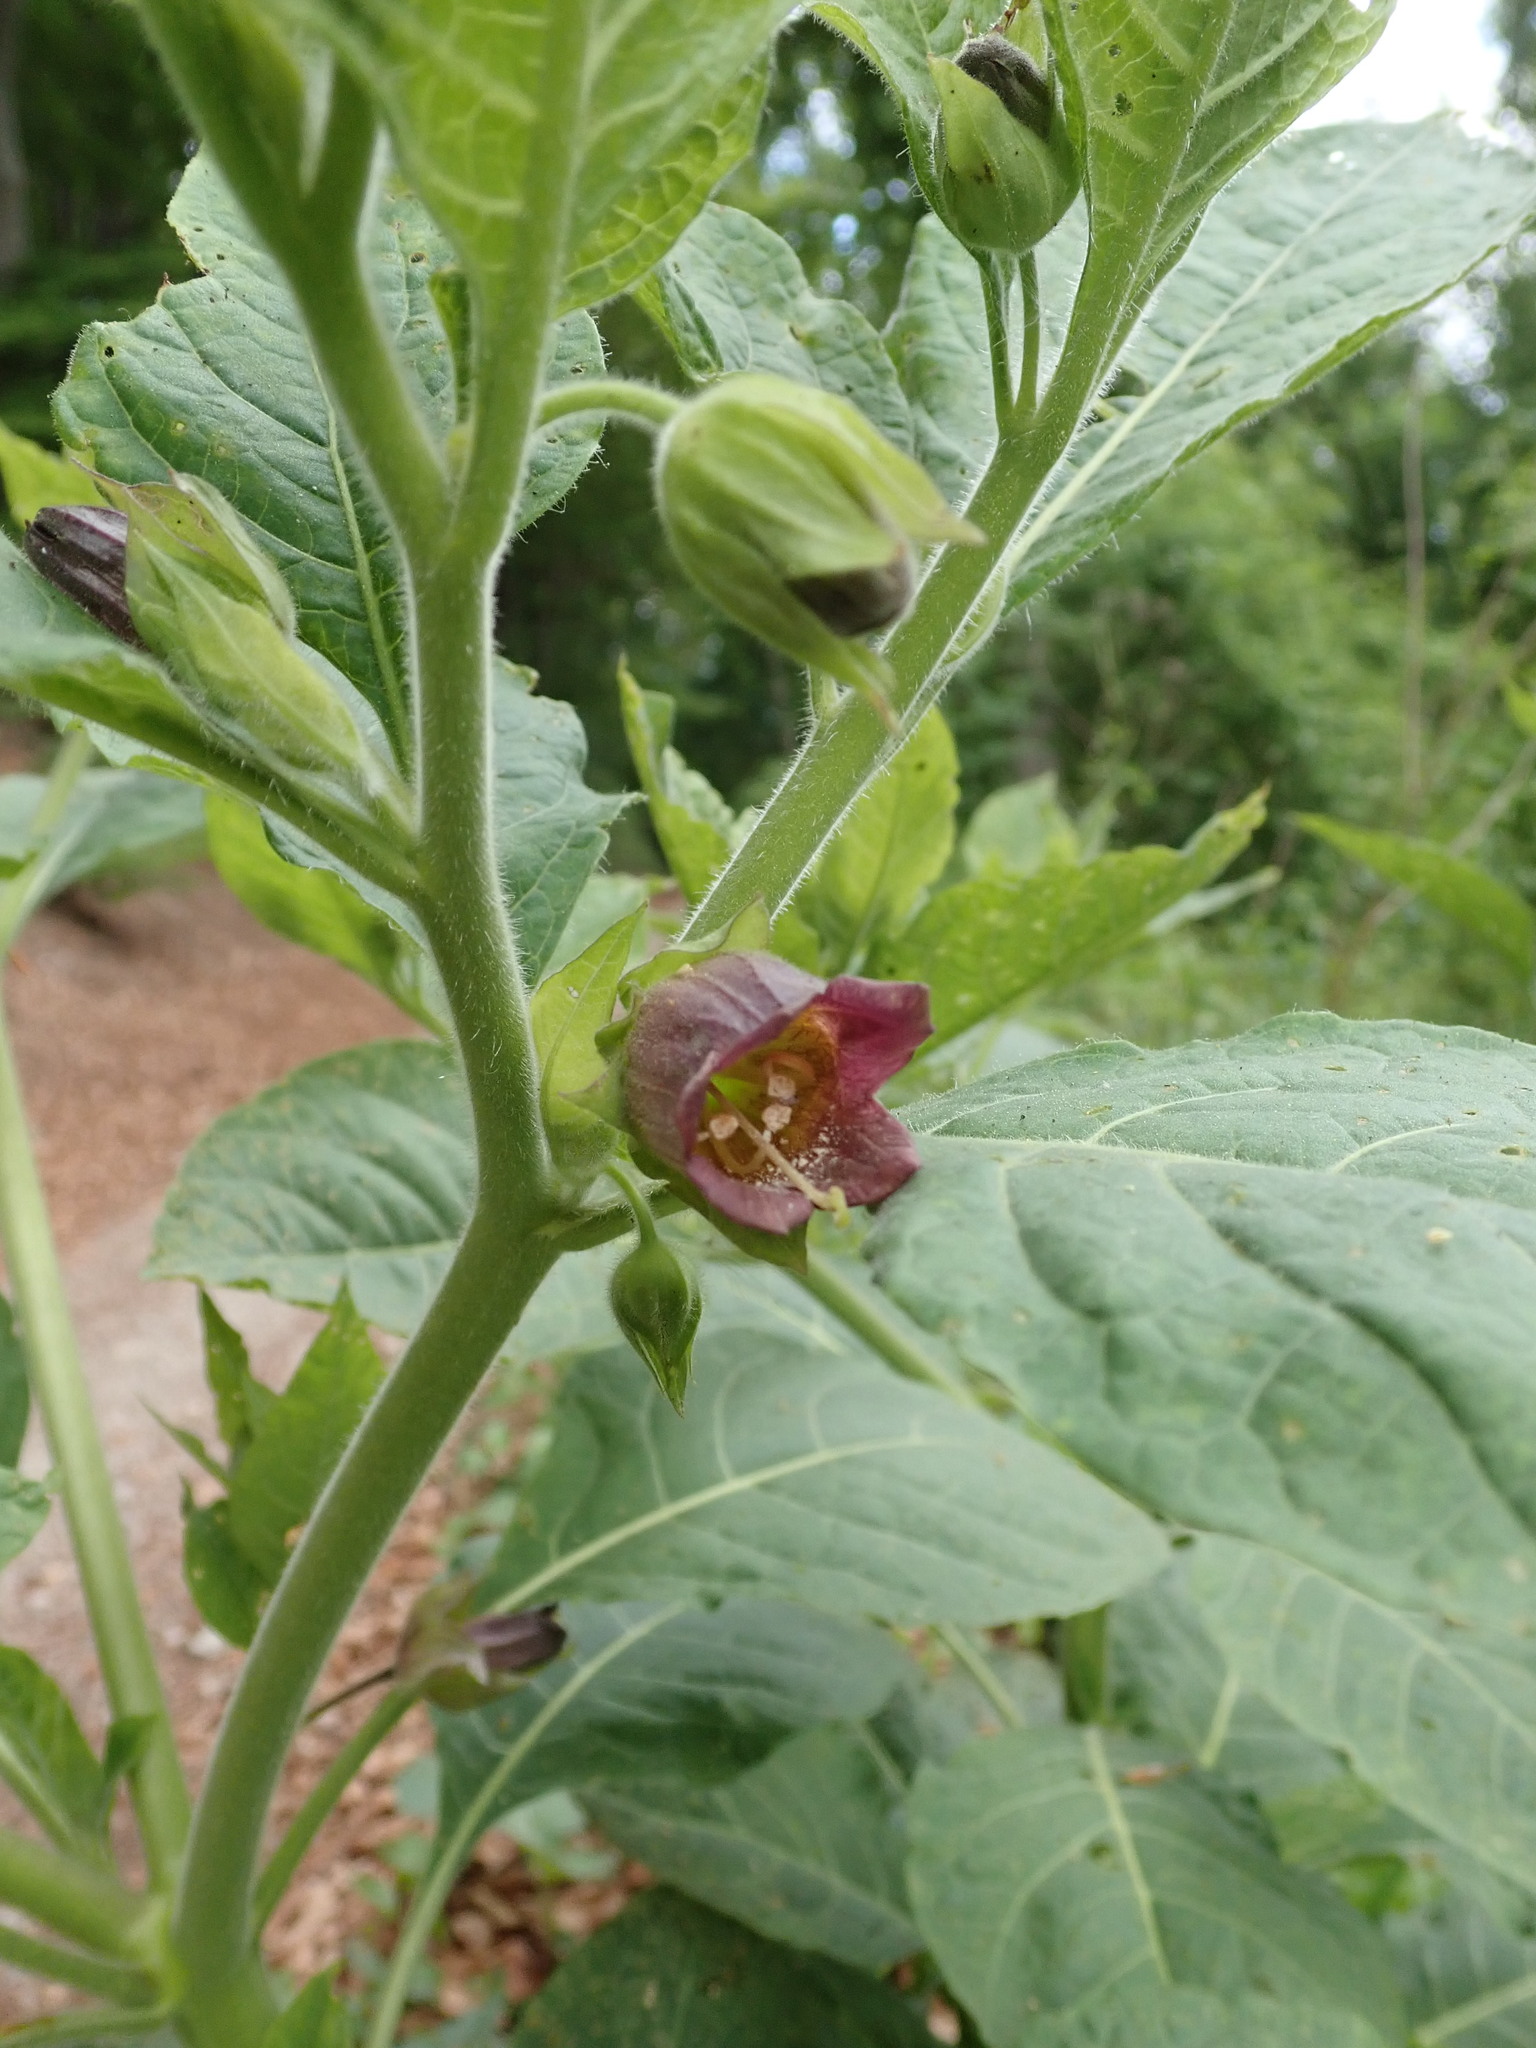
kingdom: Plantae
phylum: Tracheophyta
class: Magnoliopsida
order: Solanales
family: Solanaceae
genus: Atropa
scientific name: Atropa belladonna
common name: Deadly nightshade
